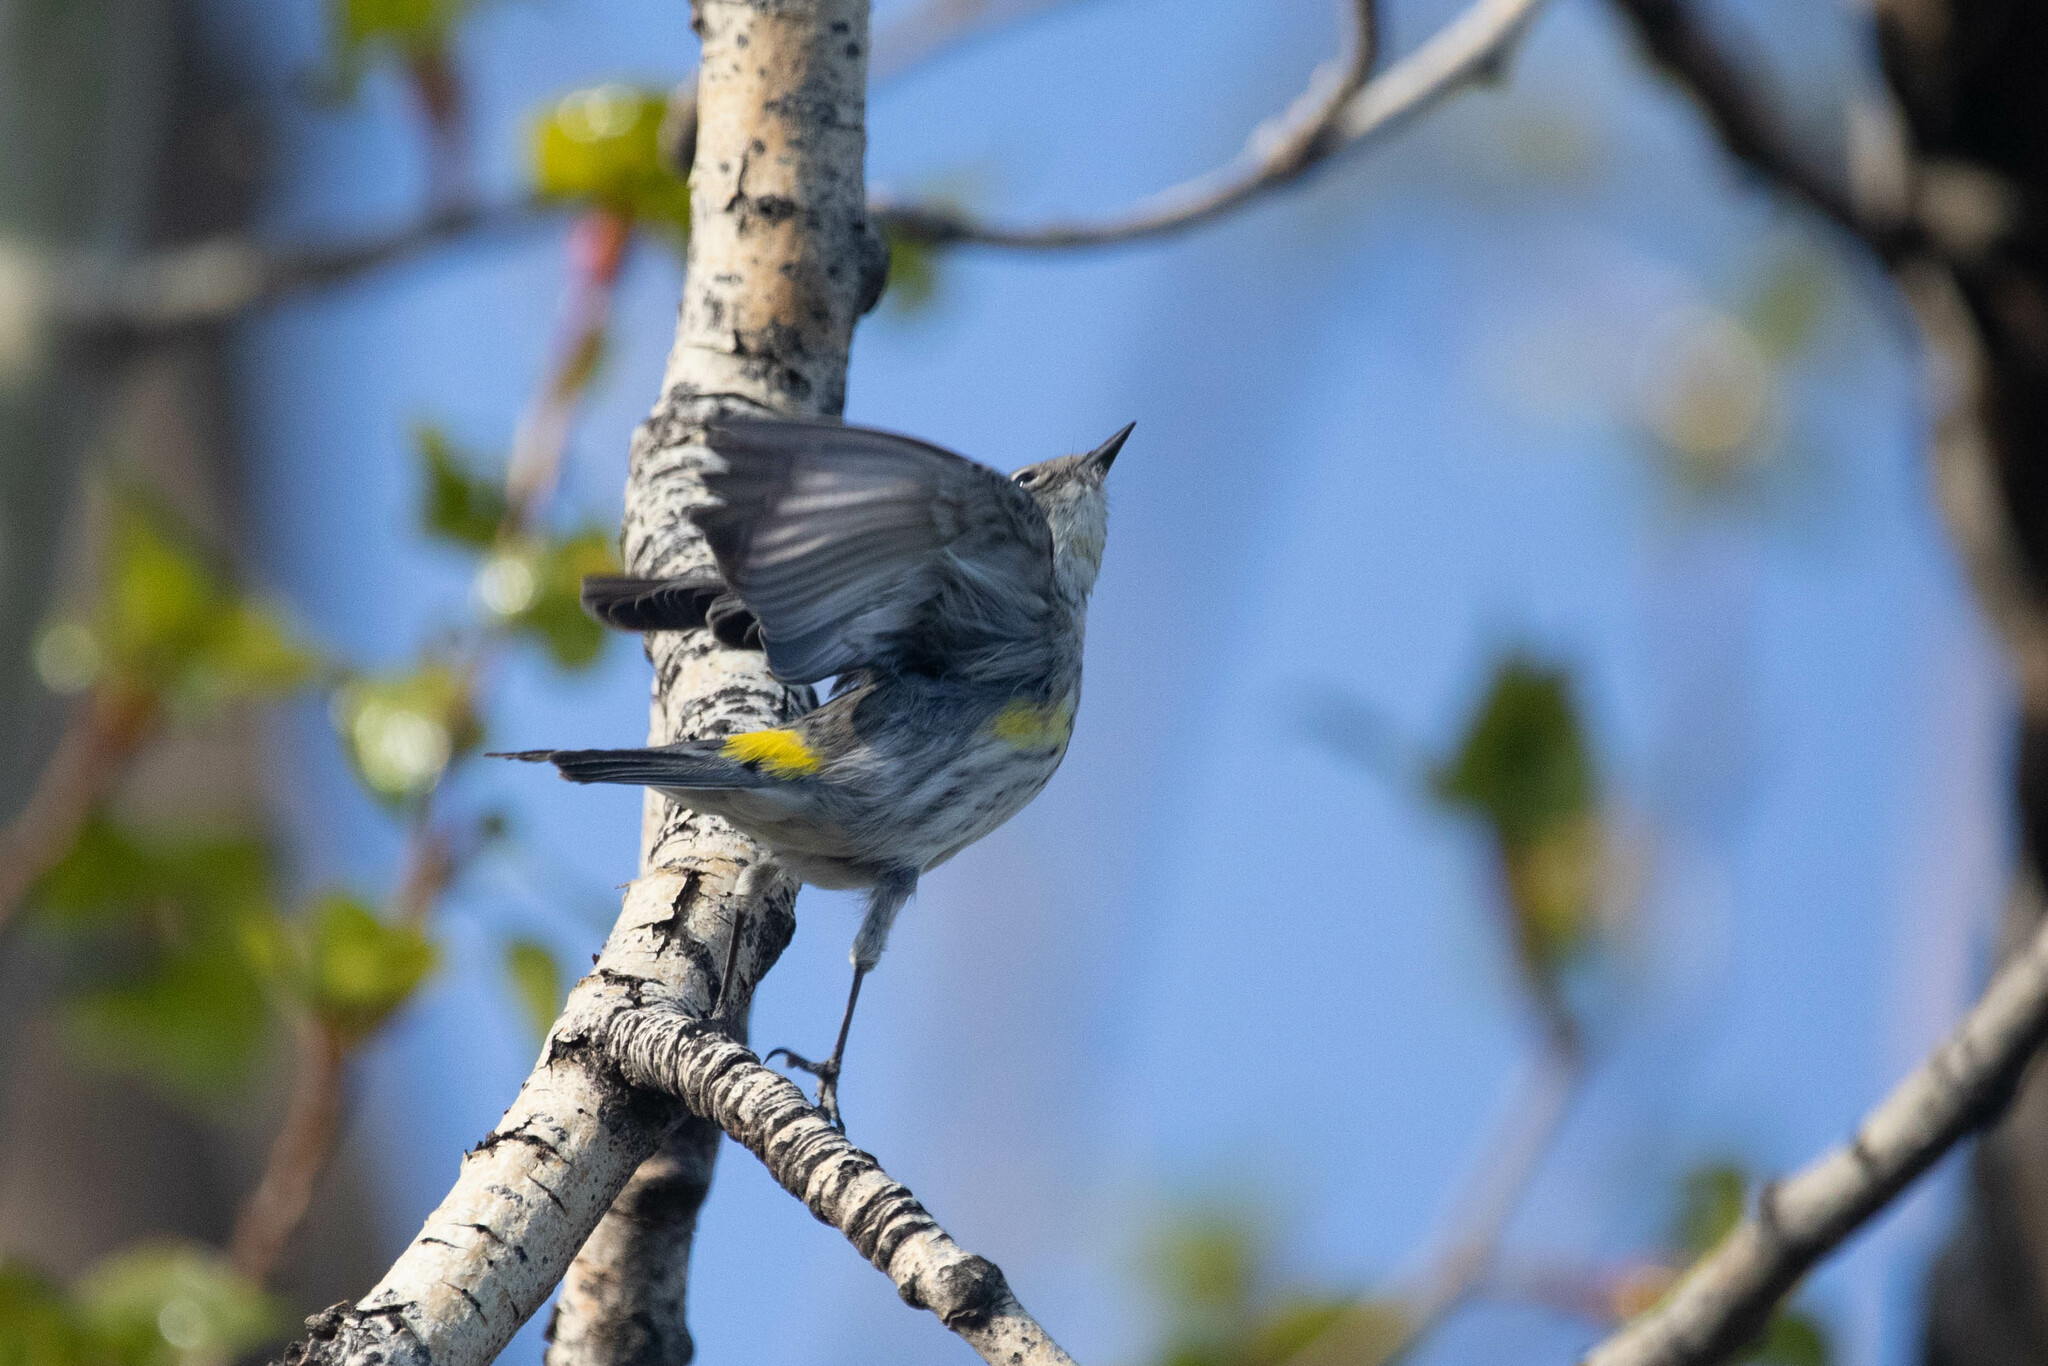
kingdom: Animalia
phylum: Chordata
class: Aves
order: Passeriformes
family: Parulidae
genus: Setophaga
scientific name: Setophaga coronata
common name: Myrtle warbler
